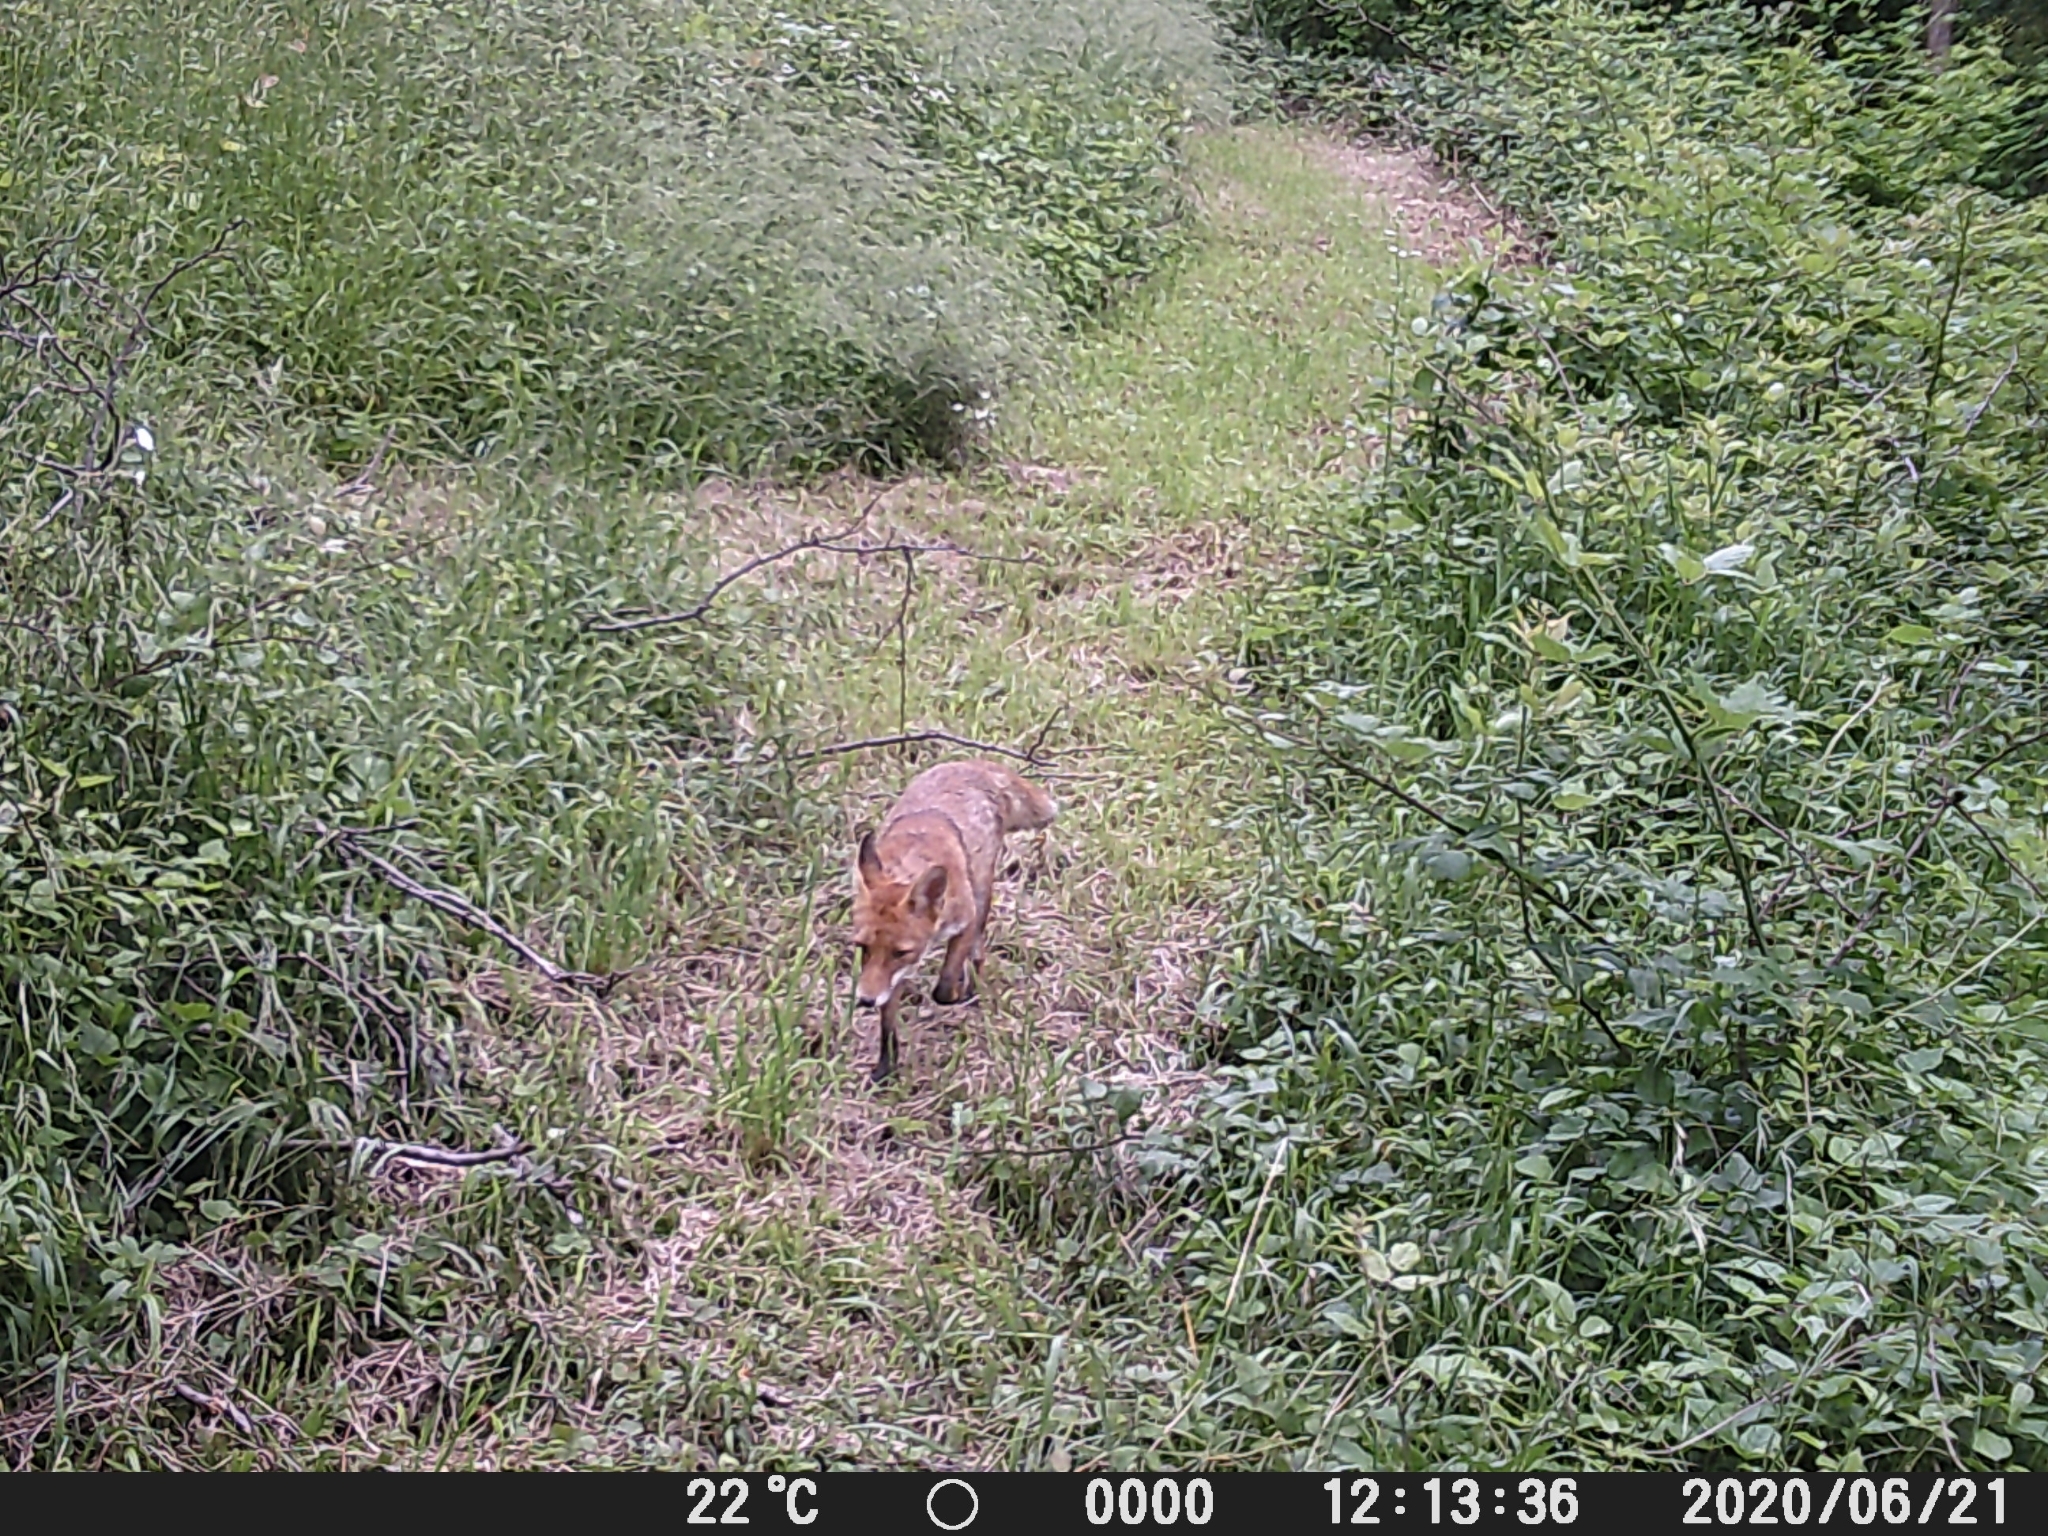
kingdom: Animalia
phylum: Chordata
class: Mammalia
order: Carnivora
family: Canidae
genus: Vulpes
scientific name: Vulpes vulpes
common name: Red fox
